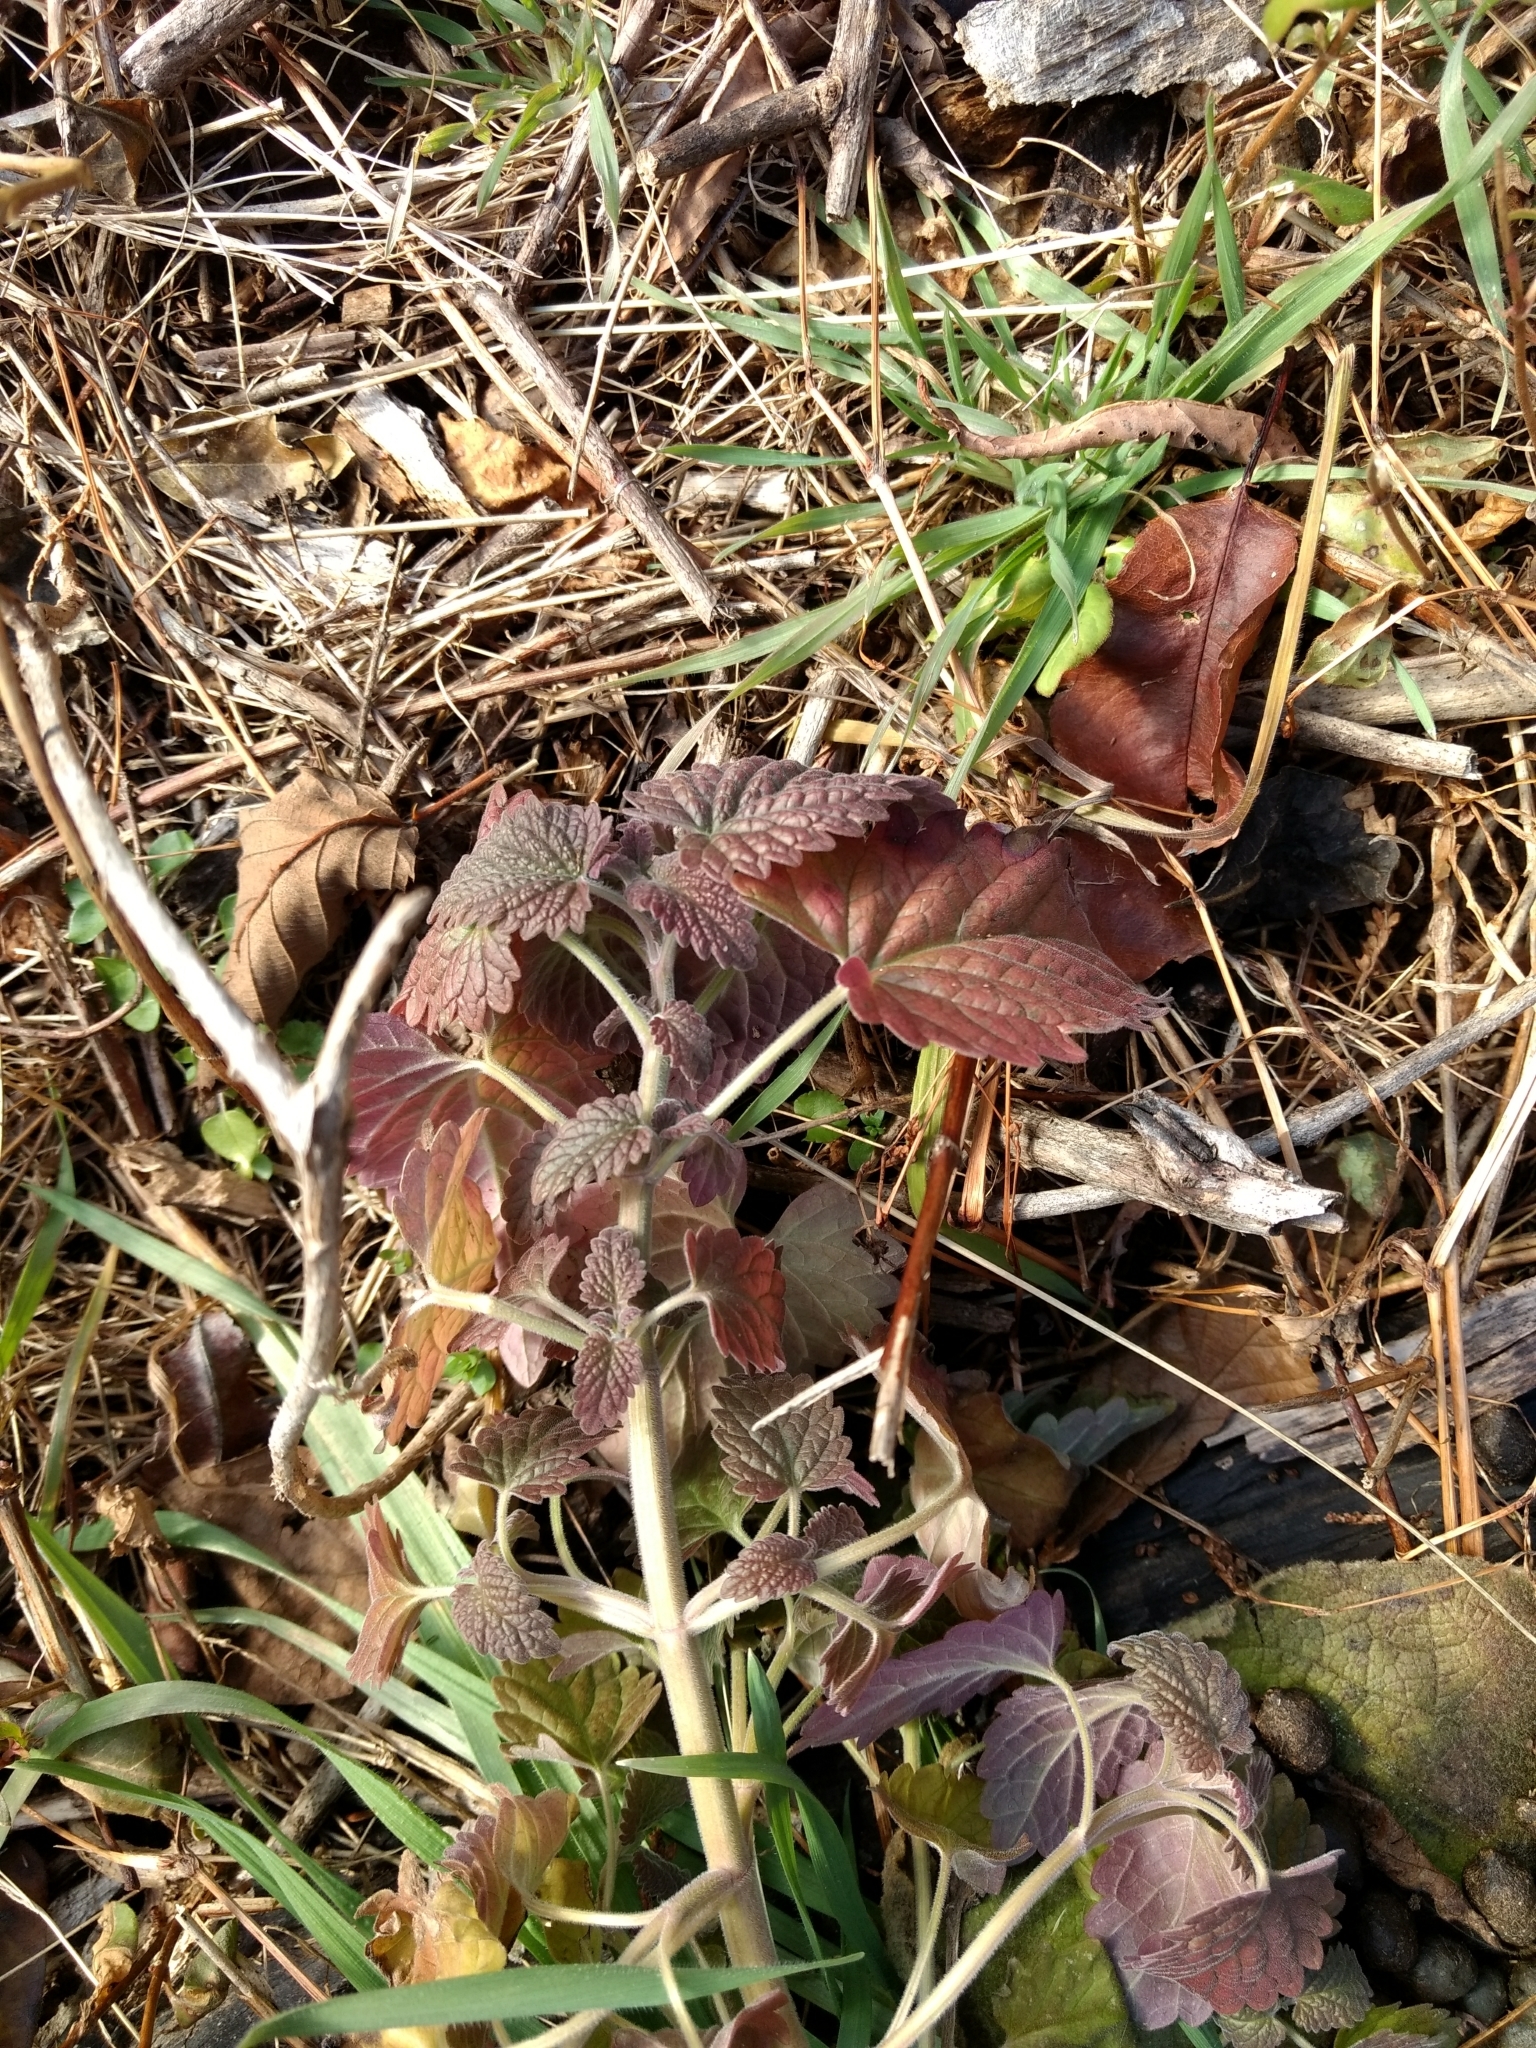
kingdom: Plantae
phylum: Tracheophyta
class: Magnoliopsida
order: Lamiales
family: Lamiaceae
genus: Nepeta
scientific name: Nepeta cataria
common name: Catnip
